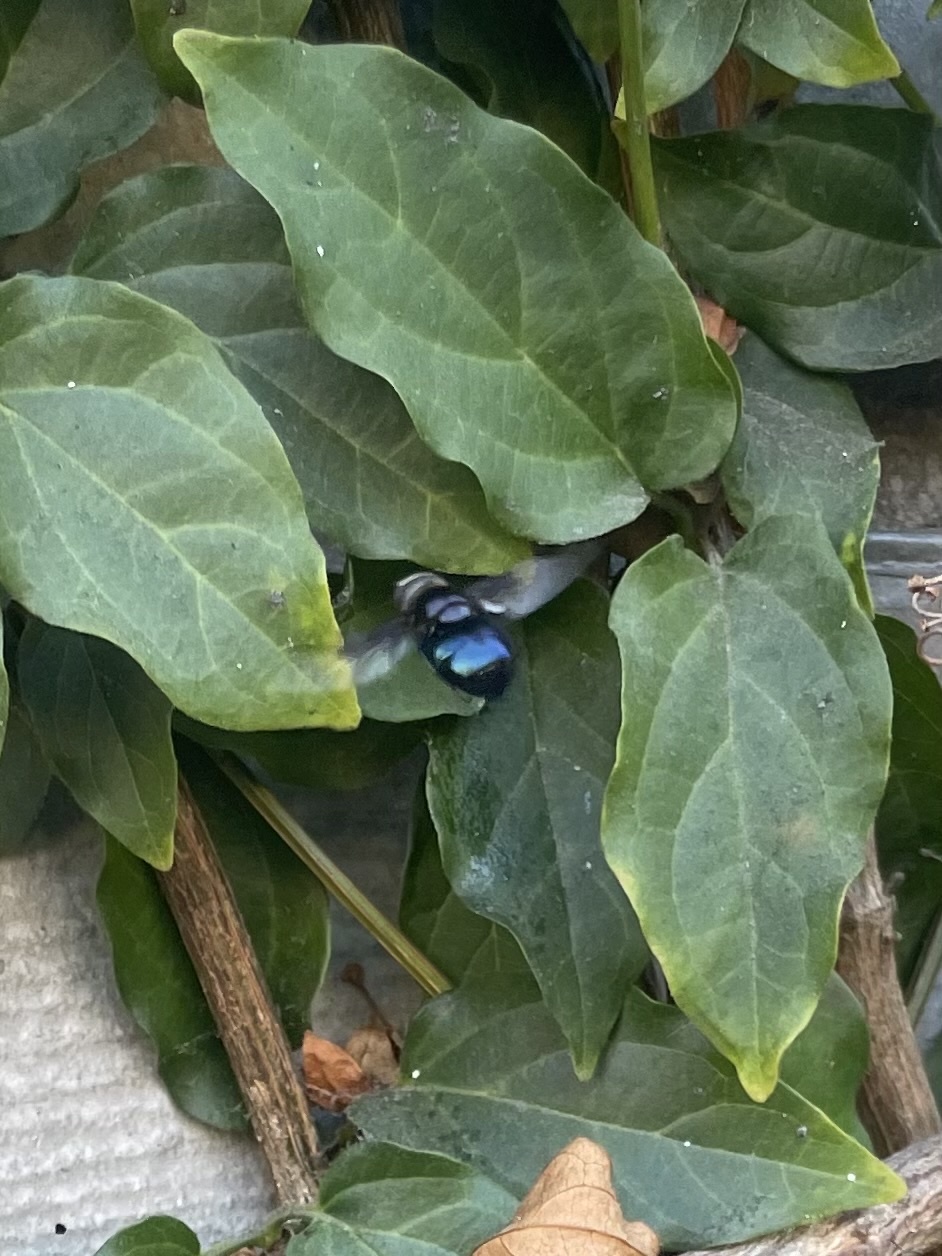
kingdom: Animalia
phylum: Arthropoda
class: Insecta
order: Diptera
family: Syrphidae
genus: Copestylum
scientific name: Copestylum
